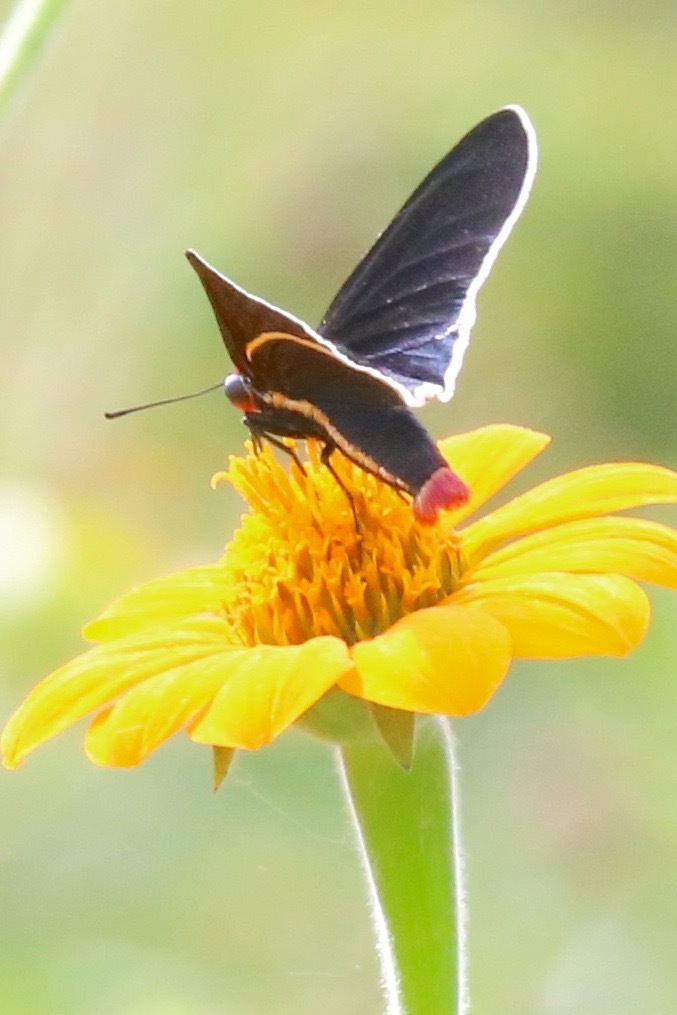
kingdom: Animalia
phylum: Arthropoda
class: Insecta
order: Lepidoptera
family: Hesperiidae
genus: Mysoria
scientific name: Mysoria affinis
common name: Red-collared firetip
